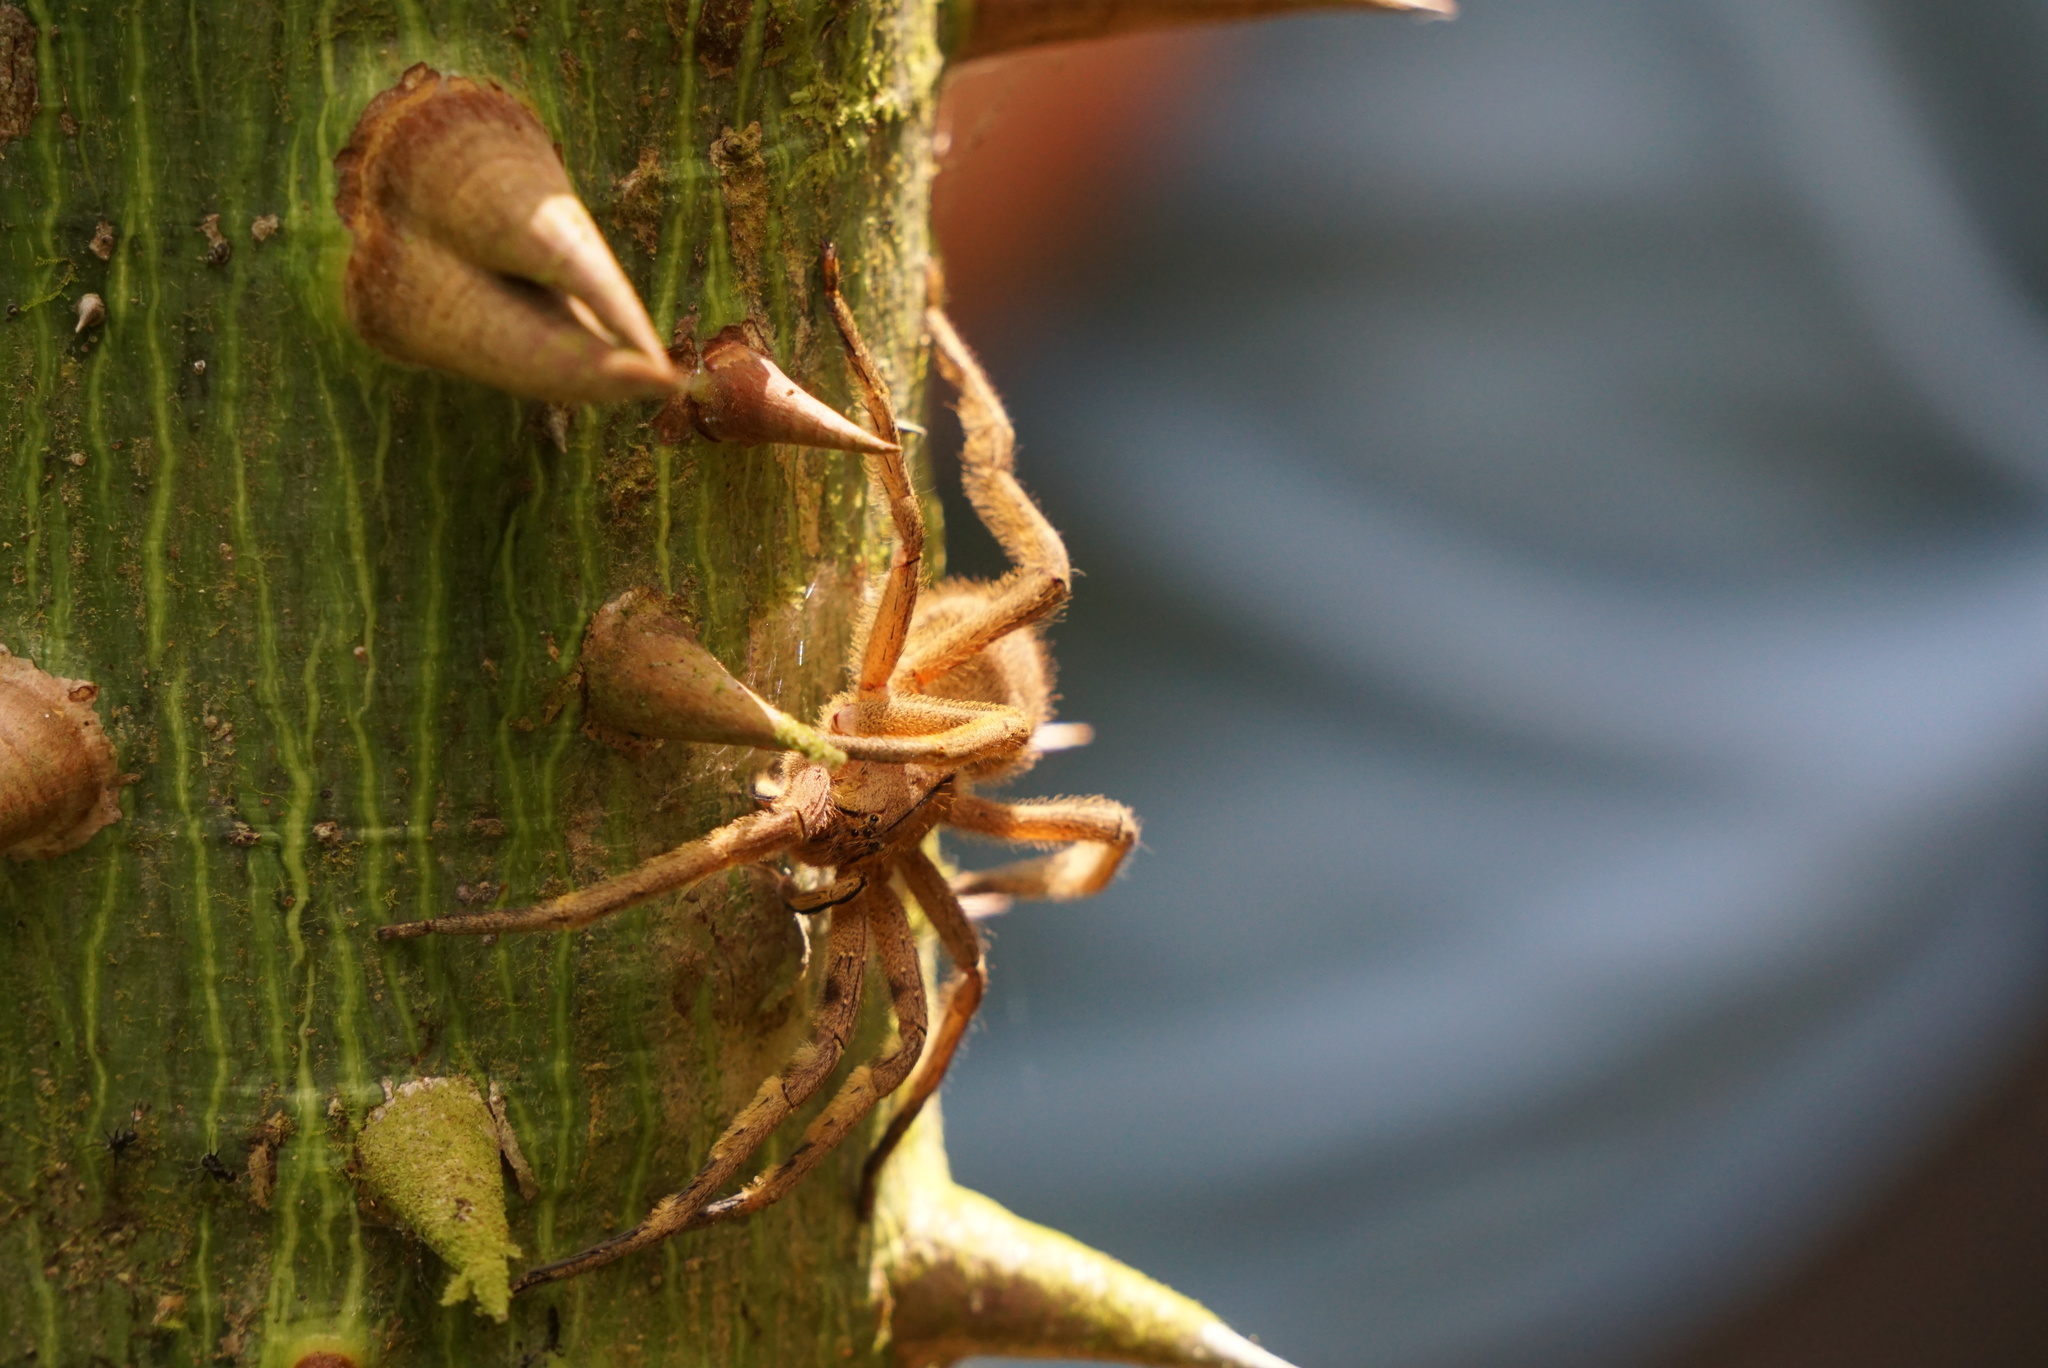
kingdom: Animalia
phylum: Arthropoda
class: Arachnida
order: Araneae
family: Ctenidae
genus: Phoneutria
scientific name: Phoneutria depilata
